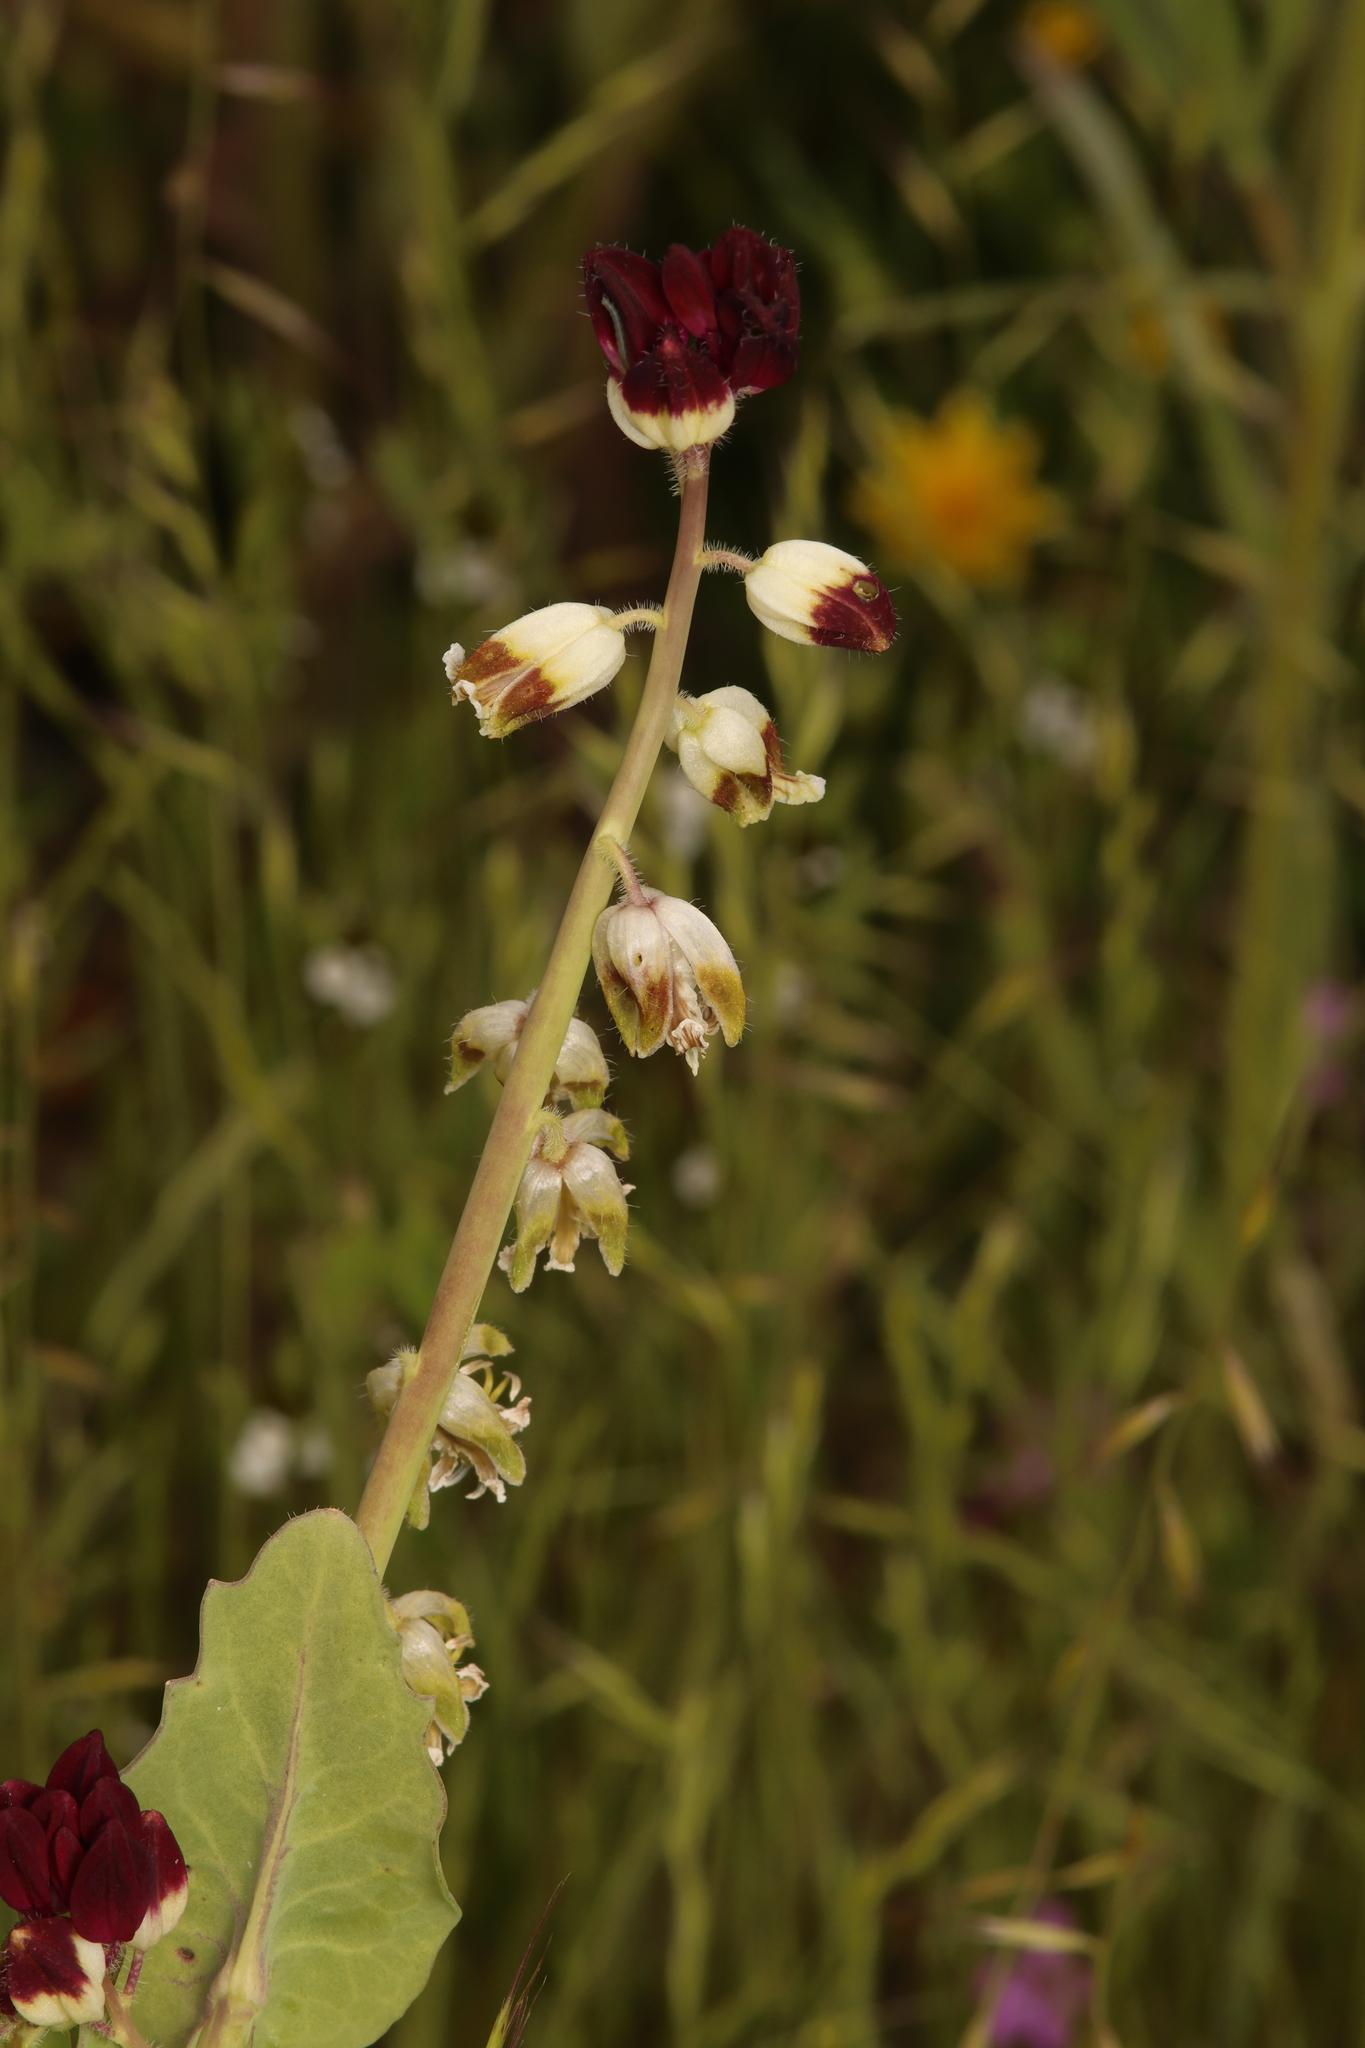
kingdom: Plantae
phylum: Tracheophyta
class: Magnoliopsida
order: Brassicales
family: Brassicaceae
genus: Streptanthus
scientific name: Streptanthus californicus
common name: California-jewel-flower
